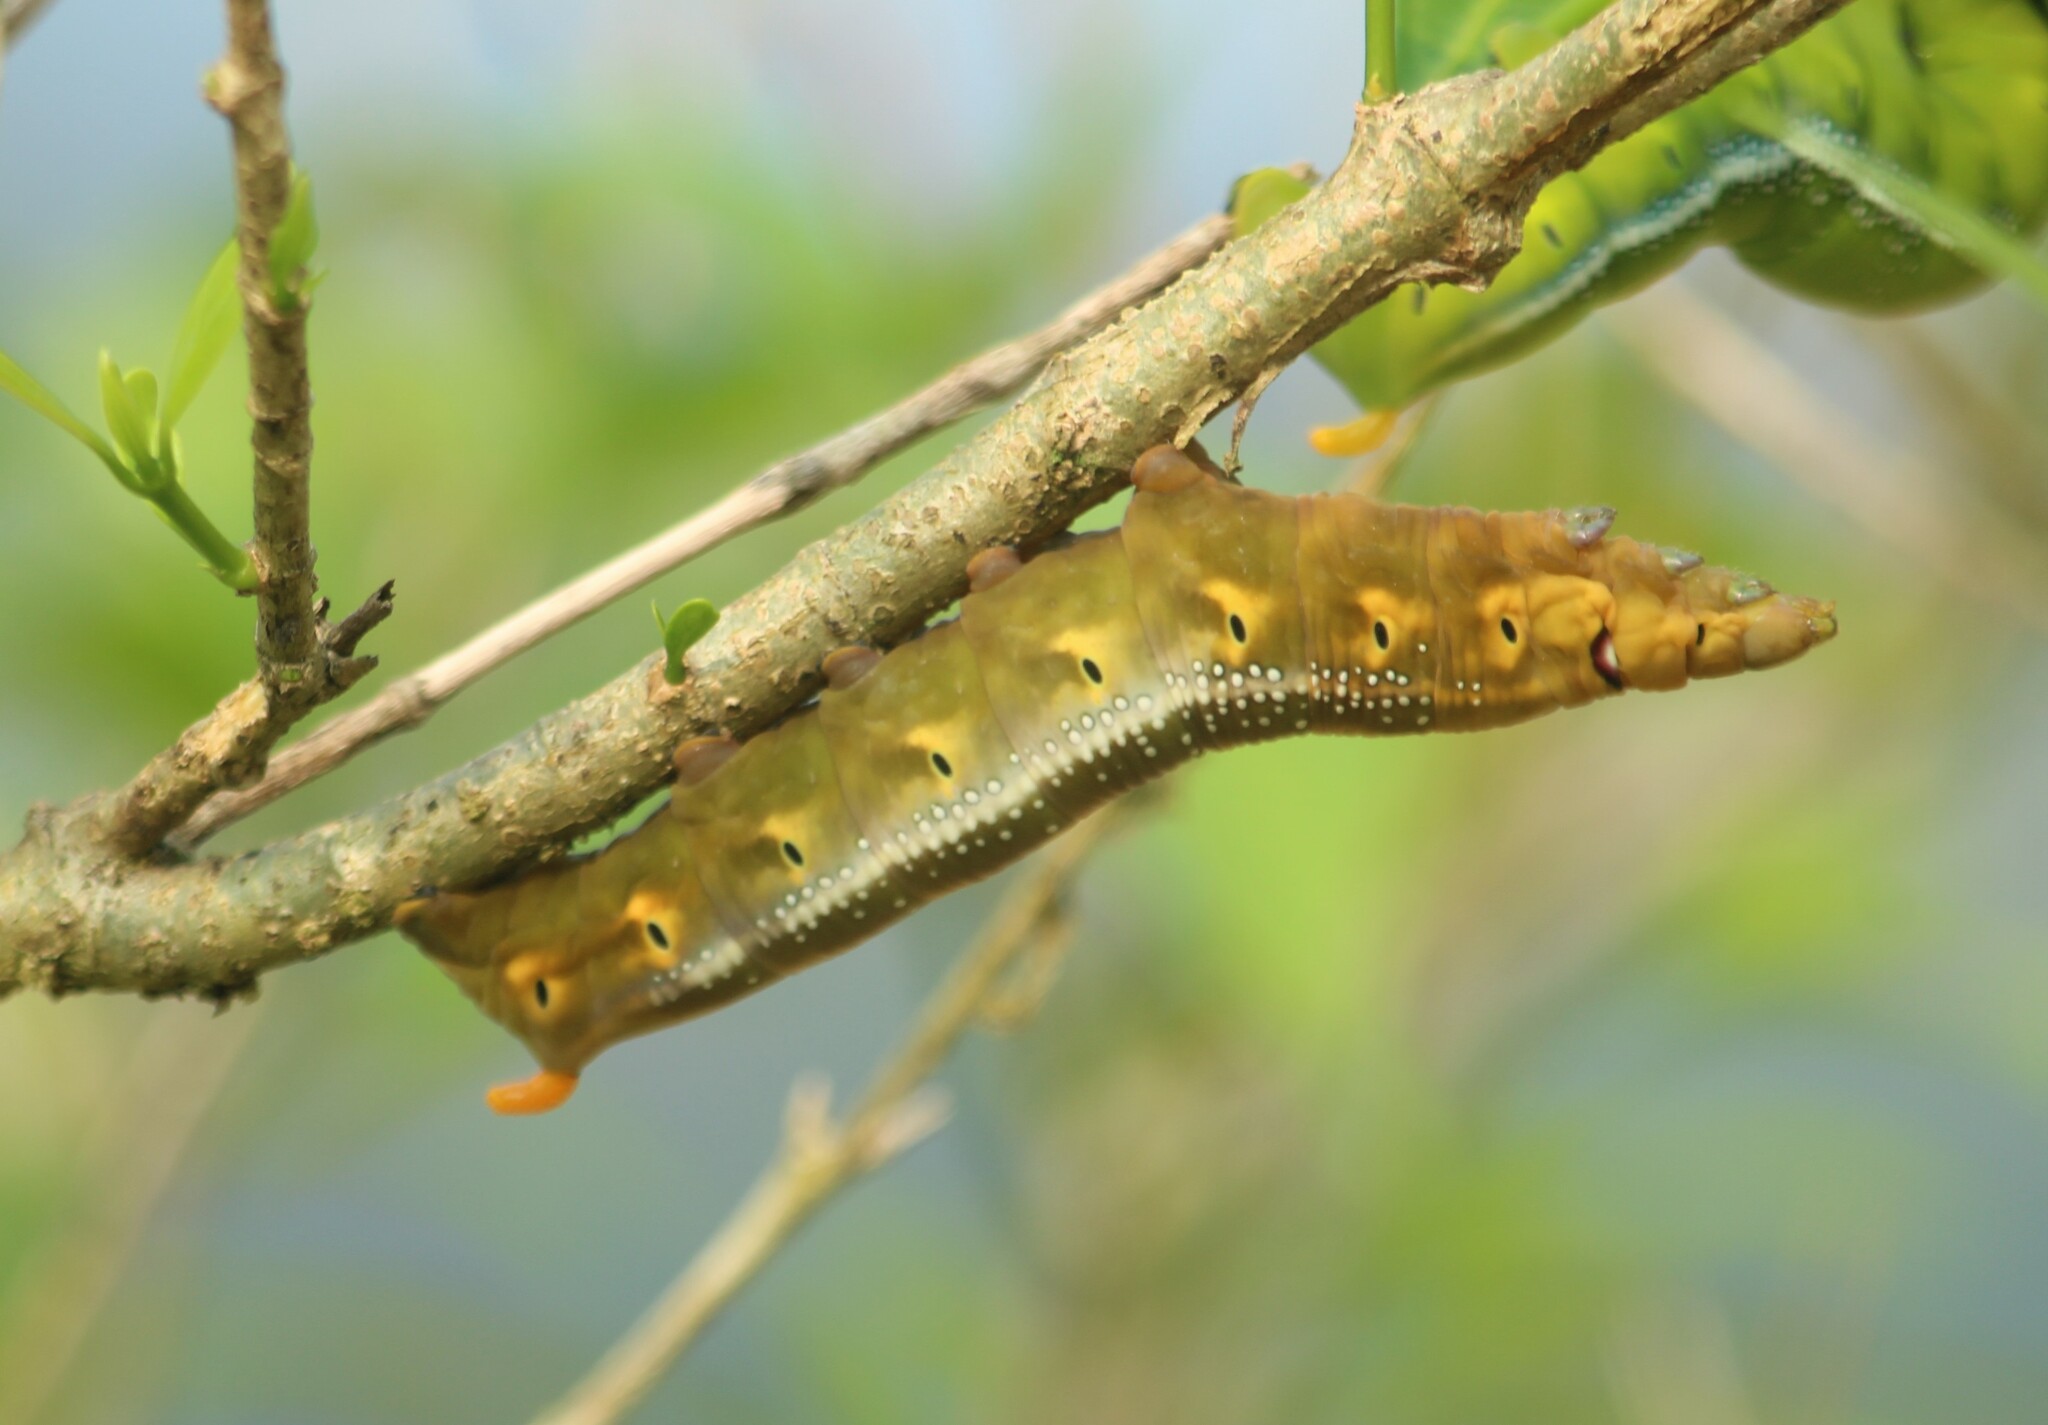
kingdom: Animalia
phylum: Arthropoda
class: Insecta
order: Lepidoptera
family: Sphingidae
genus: Daphnis
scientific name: Daphnis nerii
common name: Oleander hawk-moth
